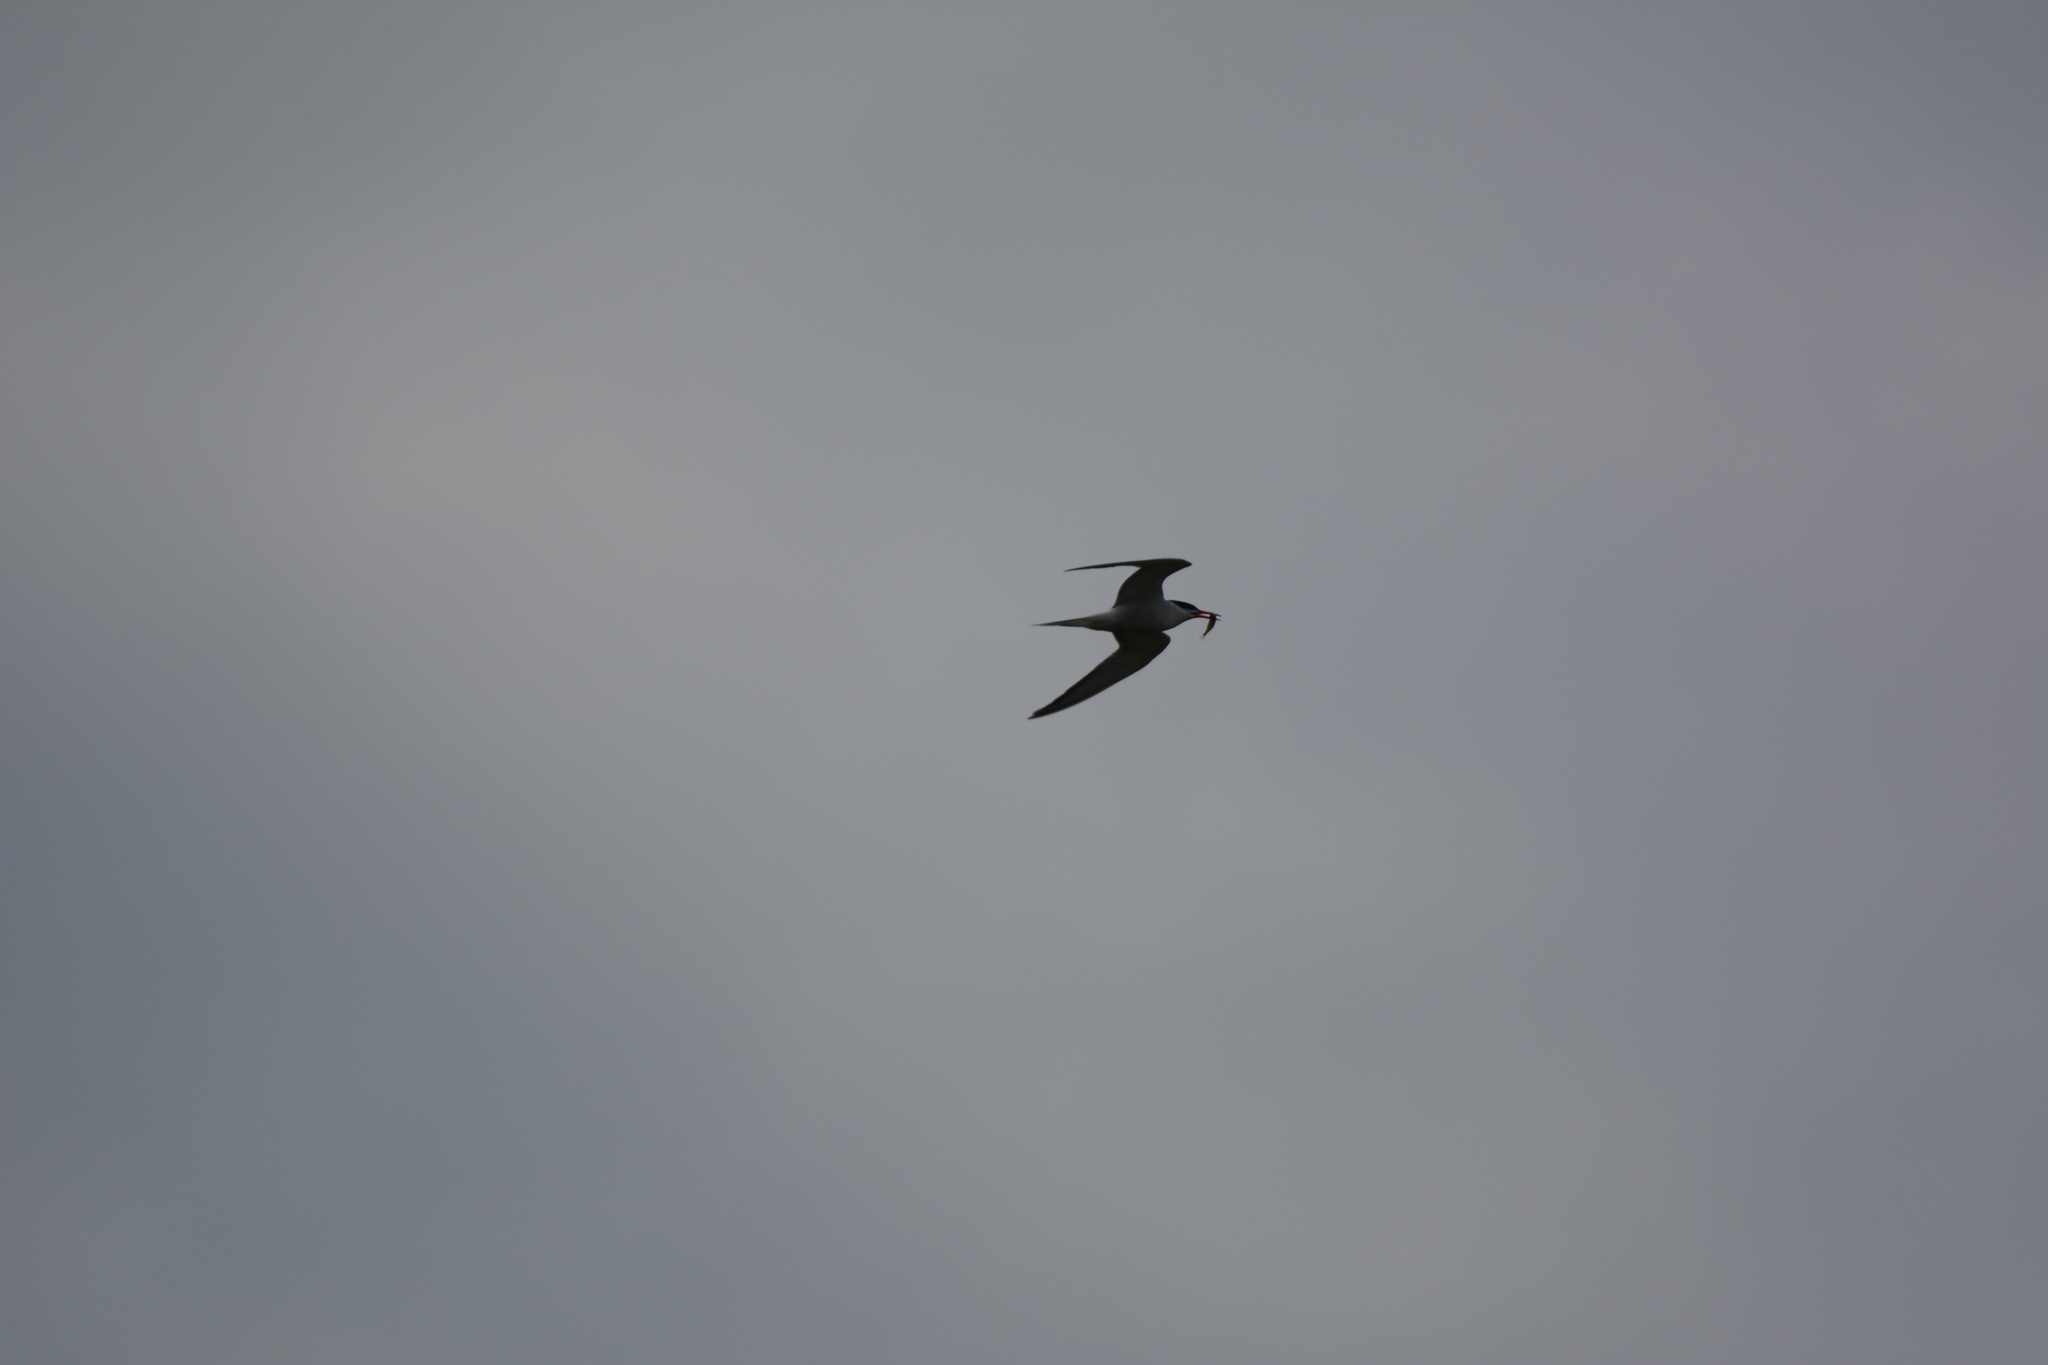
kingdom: Animalia
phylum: Chordata
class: Aves
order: Charadriiformes
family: Laridae
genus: Sterna
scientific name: Sterna hirundo
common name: Common tern
